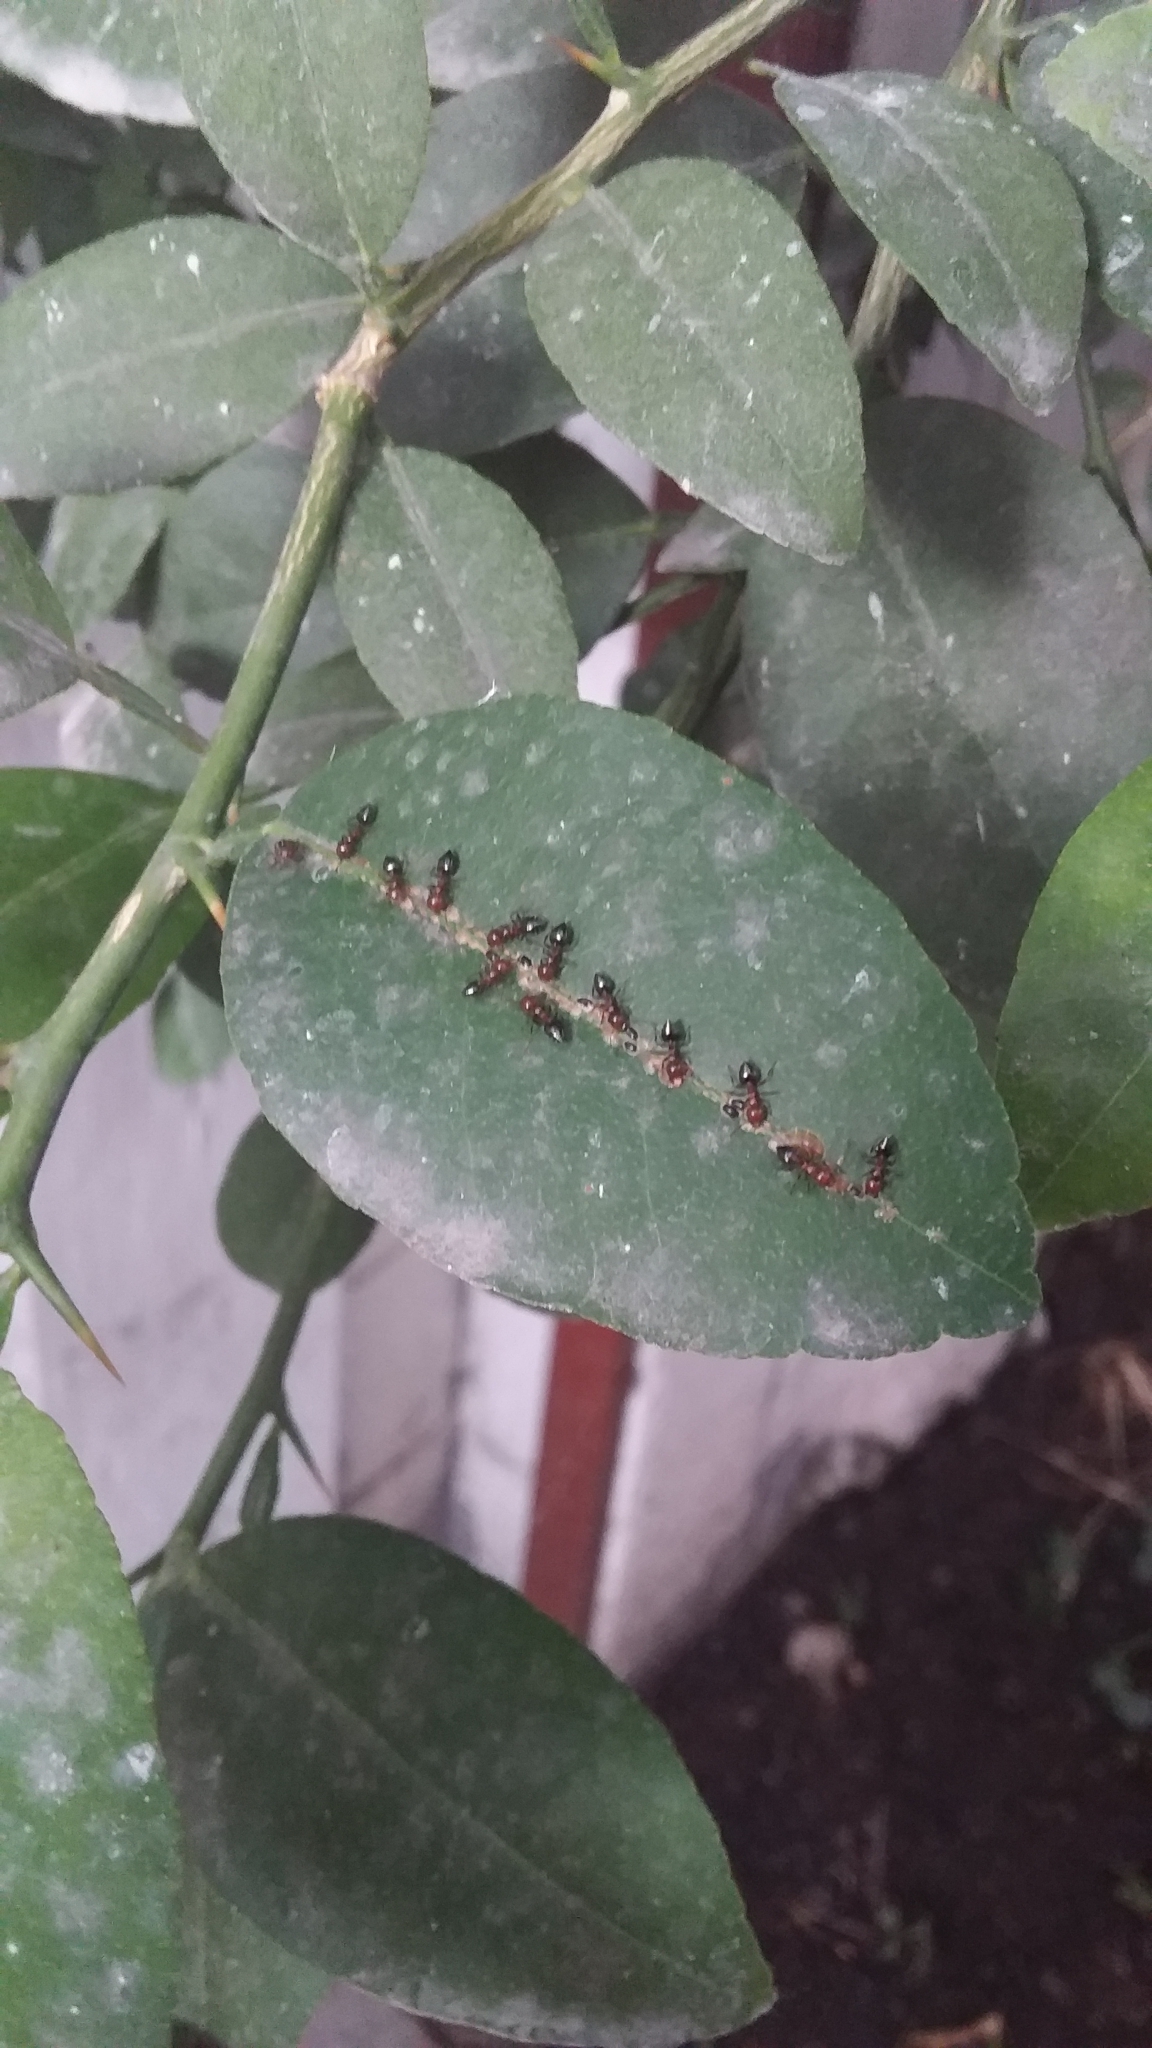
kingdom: Animalia
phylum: Arthropoda
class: Insecta
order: Hymenoptera
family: Formicidae
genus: Crematogaster
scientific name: Crematogaster laeviuscula
